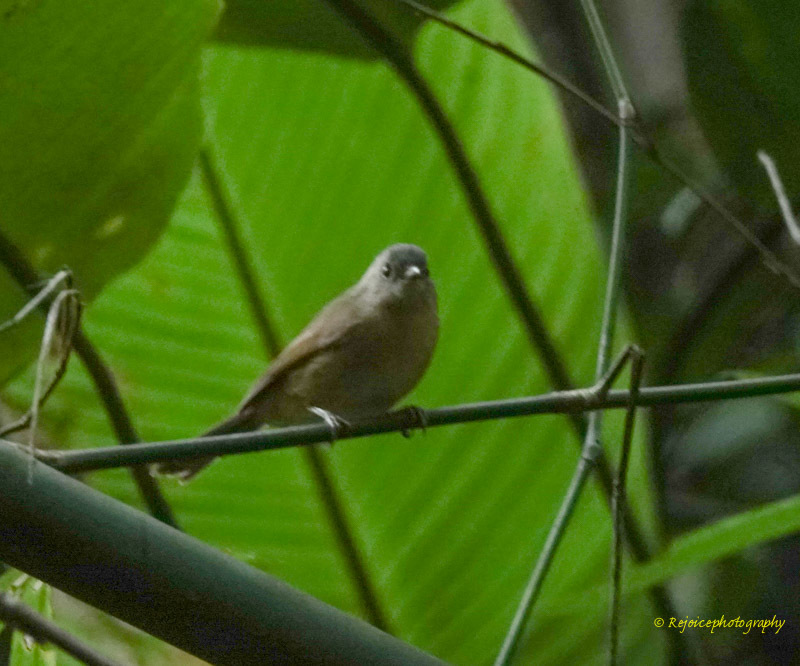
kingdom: Animalia
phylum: Chordata
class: Aves
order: Passeriformes
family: Pellorneidae
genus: Alcippe
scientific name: Alcippe poioicephala
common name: Brown-cheeked fulvetta
